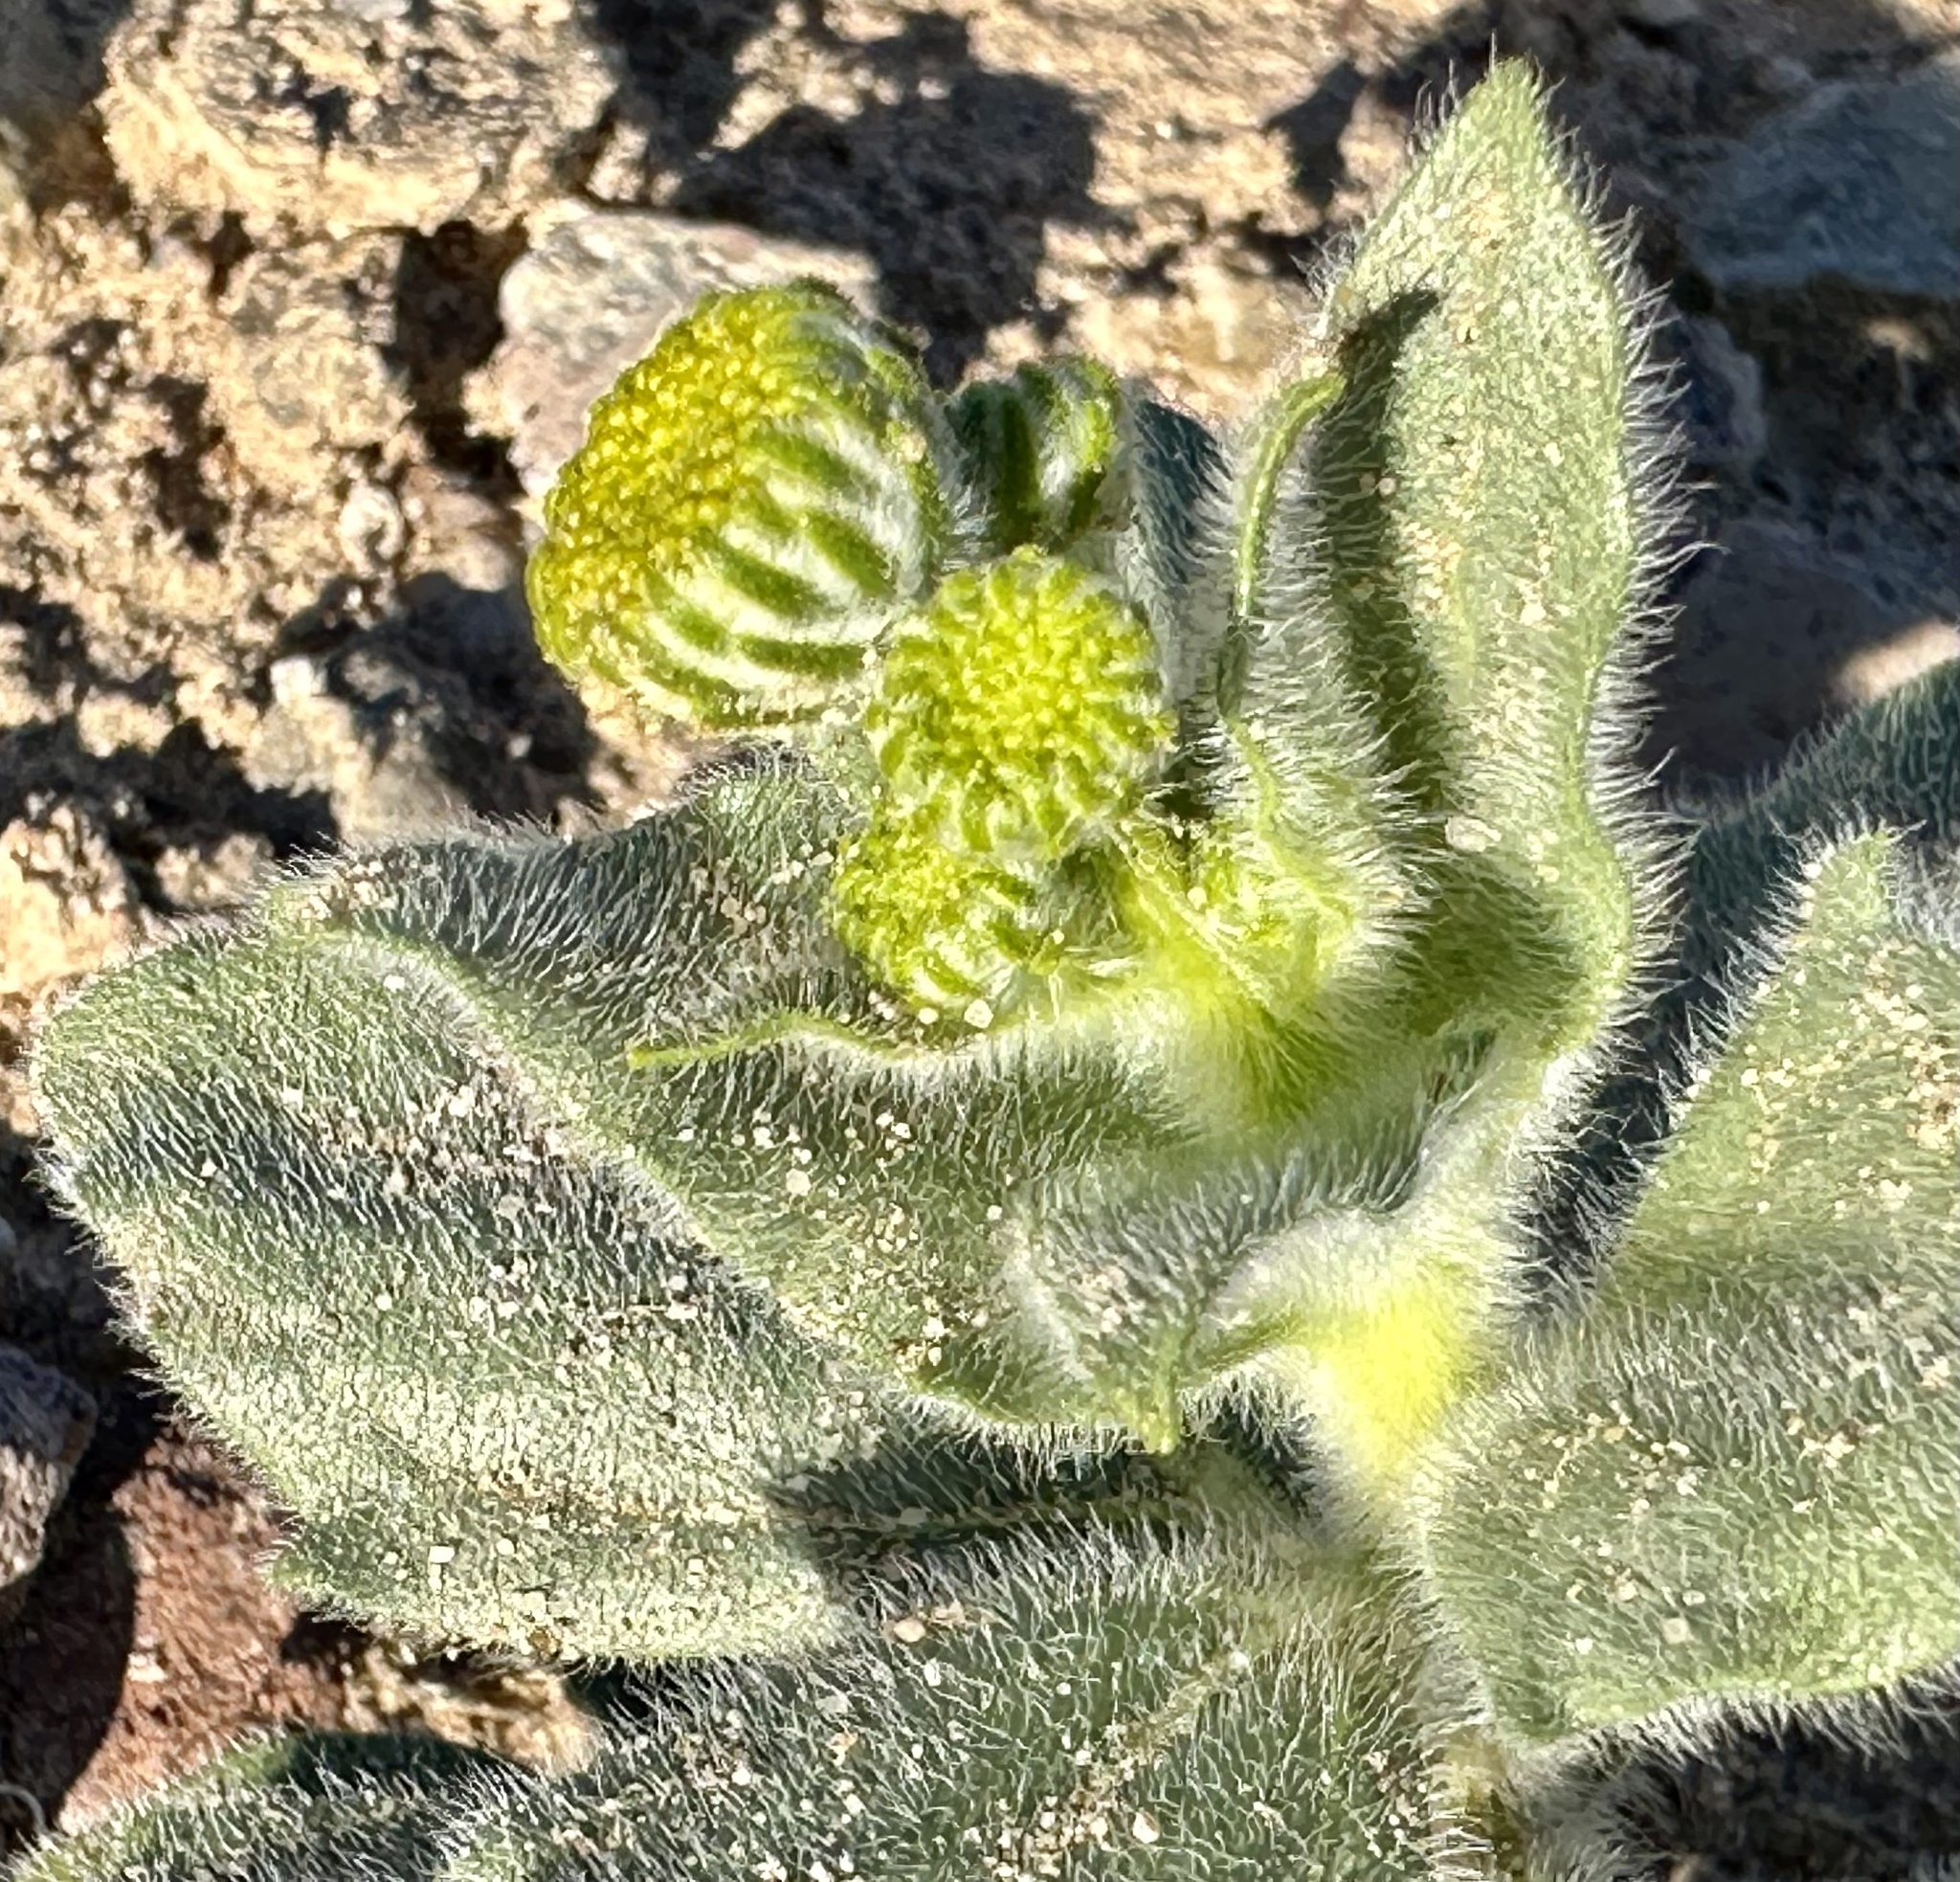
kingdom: Plantae
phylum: Tracheophyta
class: Magnoliopsida
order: Asterales
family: Asteraceae
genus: Geraea
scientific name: Geraea canescens
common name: Desert-gold
